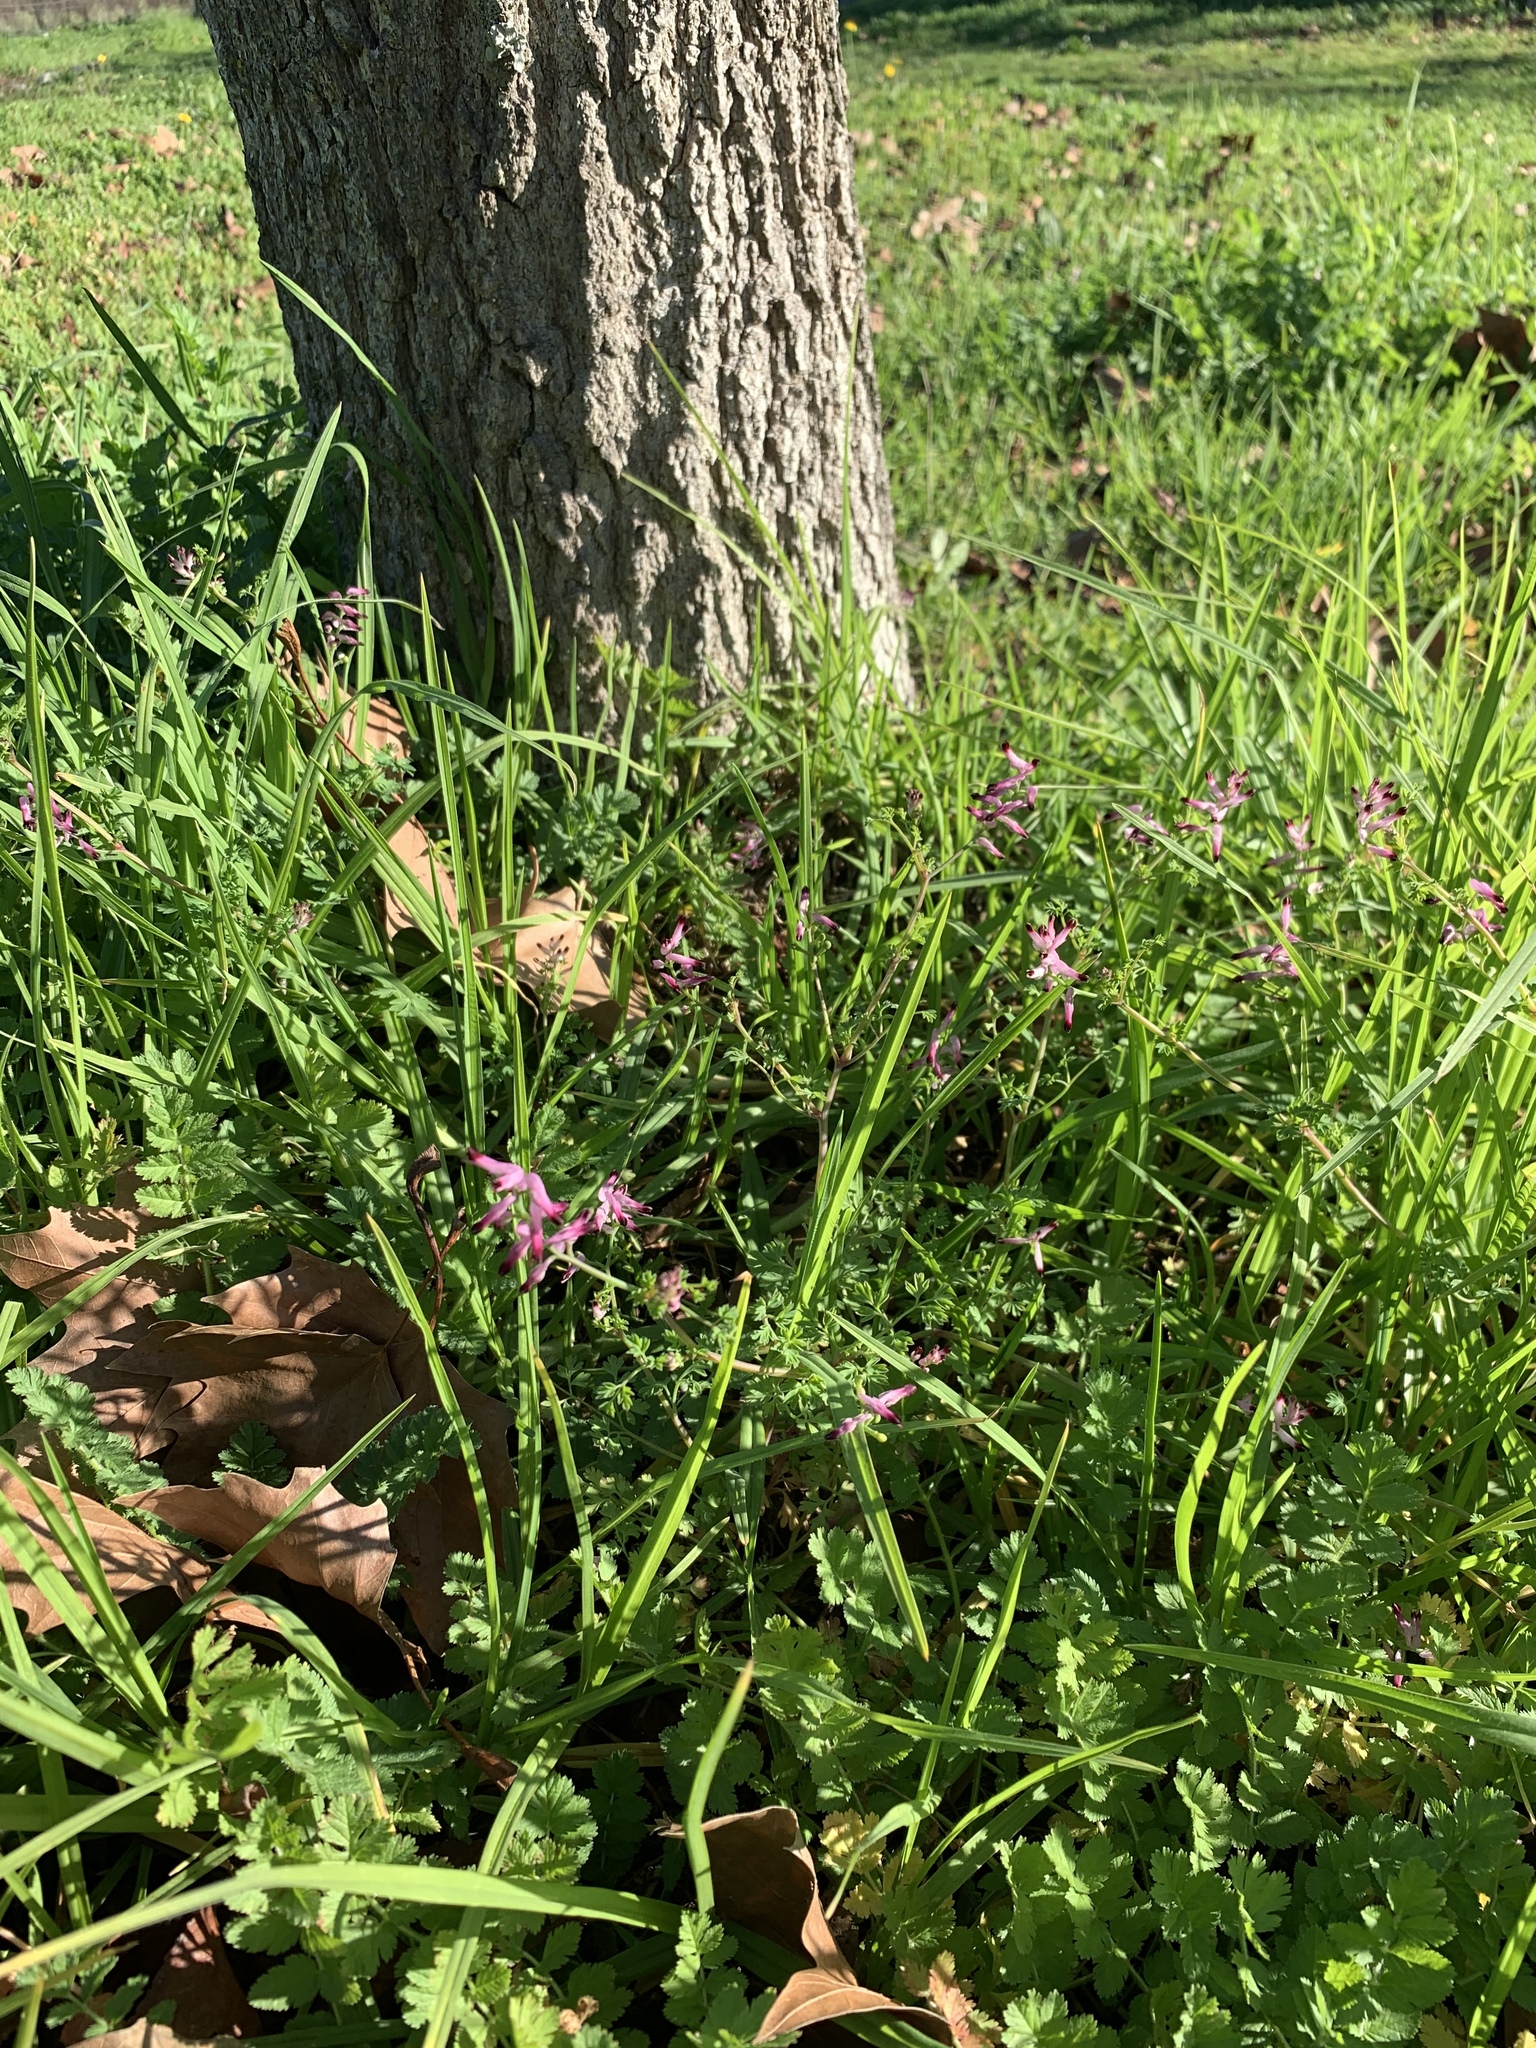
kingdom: Plantae
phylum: Tracheophyta
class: Magnoliopsida
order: Ranunculales
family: Papaveraceae
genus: Fumaria
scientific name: Fumaria muralis
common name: Common ramping-fumitory
